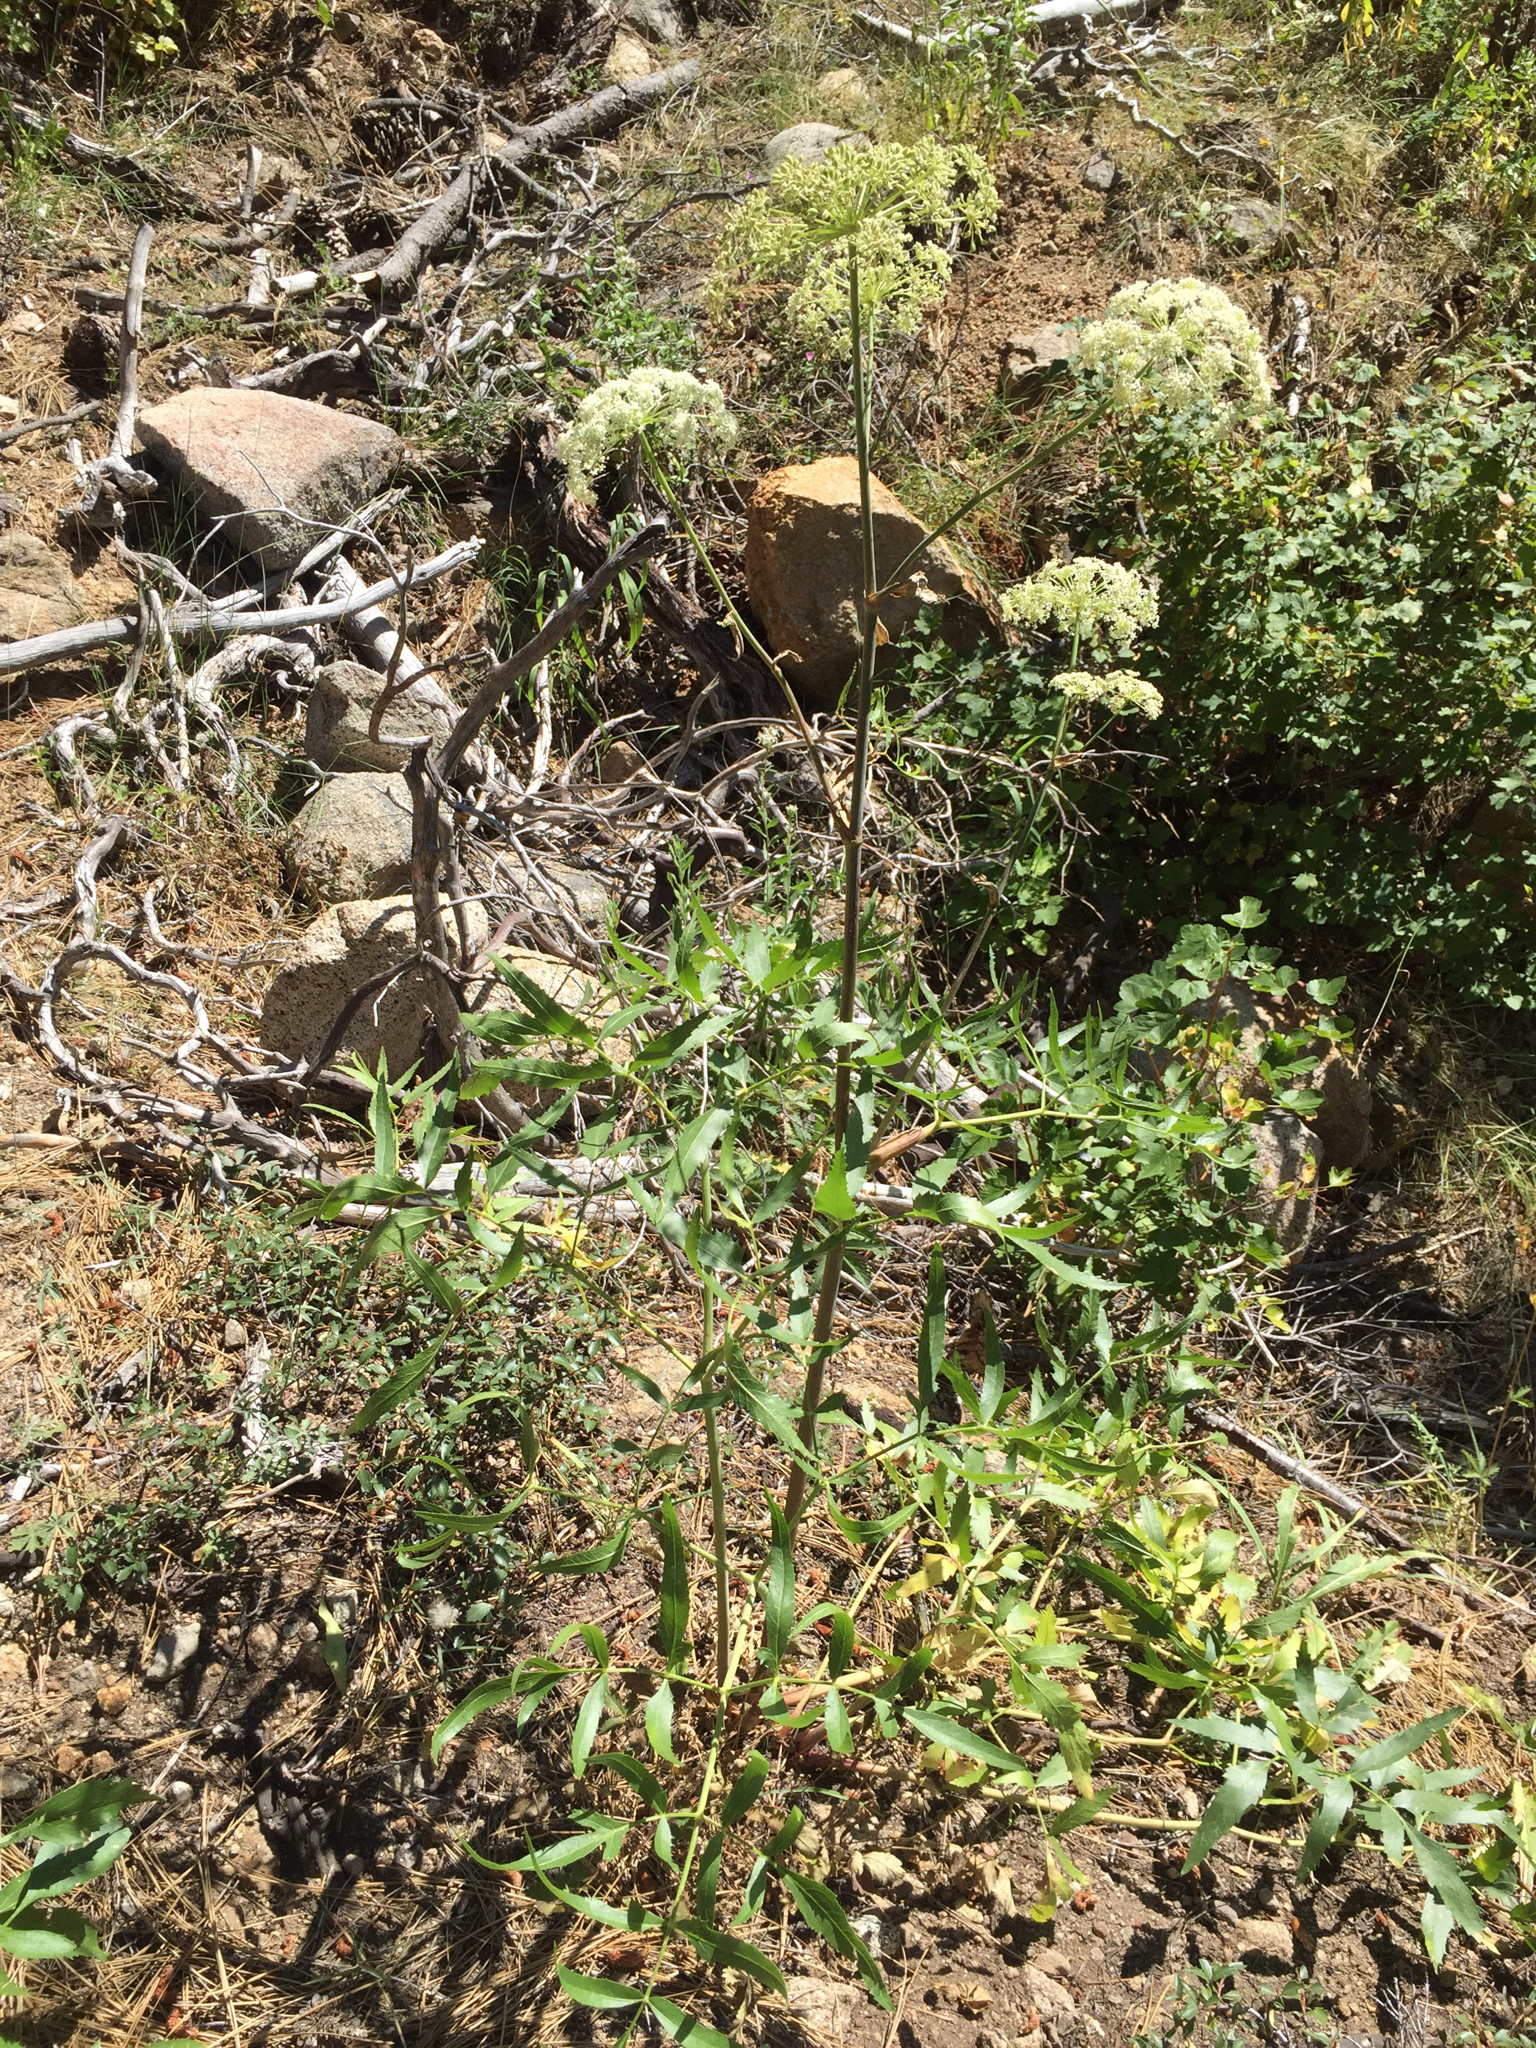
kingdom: Plantae
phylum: Tracheophyta
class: Magnoliopsida
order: Apiales
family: Apiaceae
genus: Angelica
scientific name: Angelica breweri
